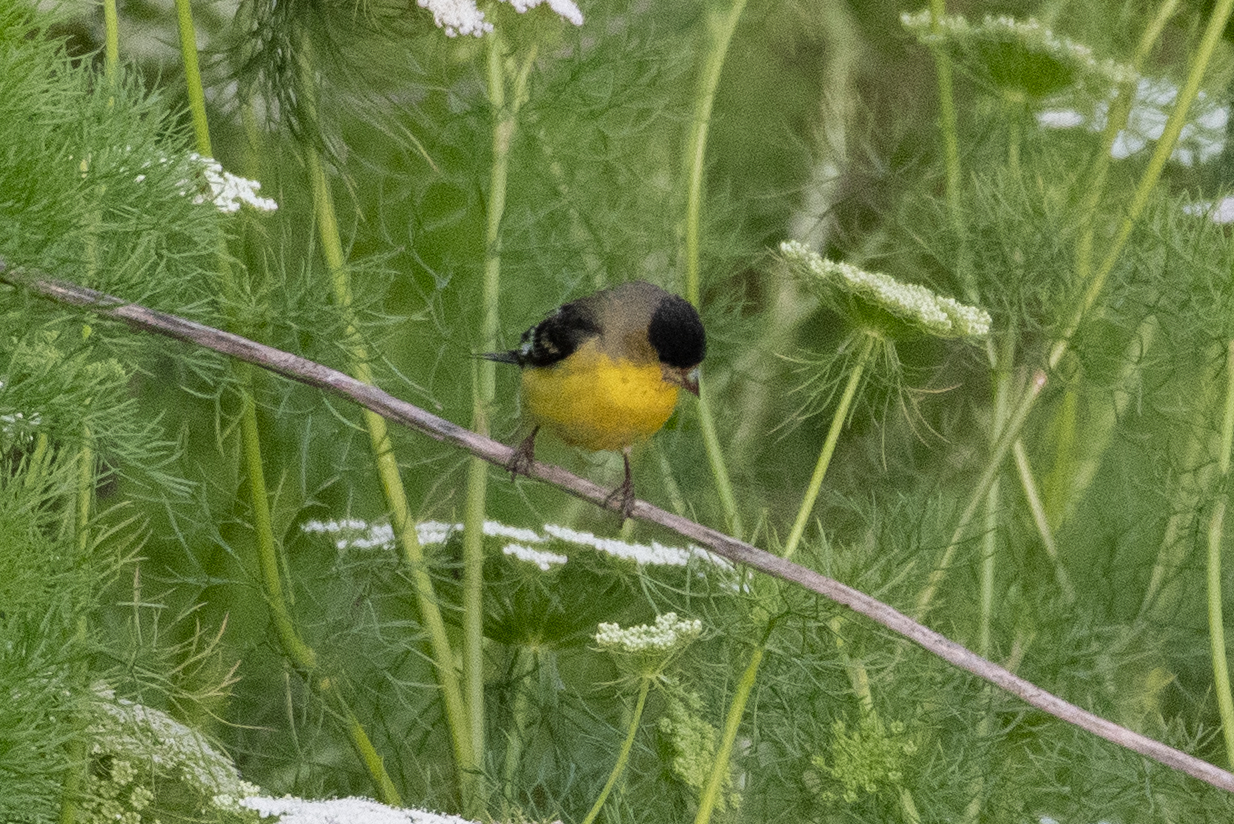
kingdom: Animalia
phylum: Chordata
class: Aves
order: Passeriformes
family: Fringillidae
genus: Spinus
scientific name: Spinus psaltria
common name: Lesser goldfinch
